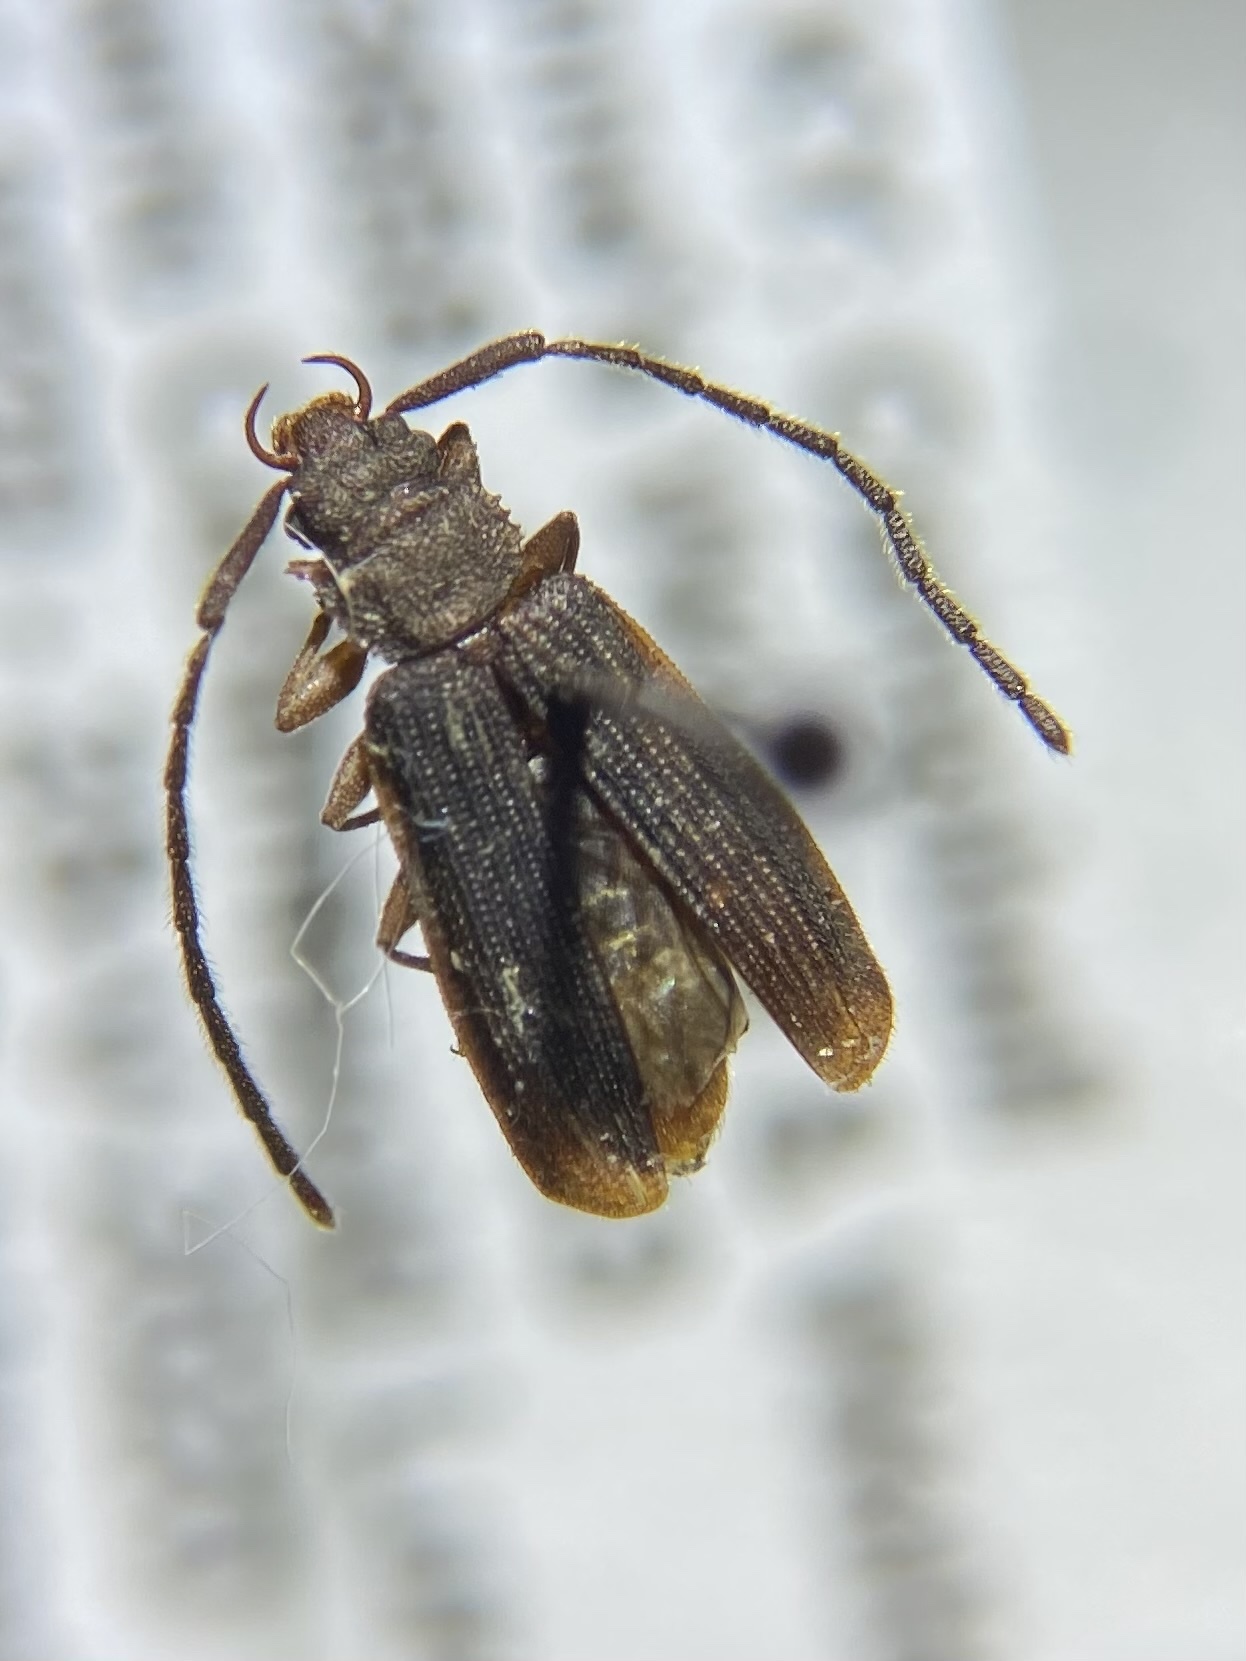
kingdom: Animalia
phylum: Arthropoda
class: Insecta
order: Coleoptera
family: Silvanidae
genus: Uleiota
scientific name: Uleiota dubia
